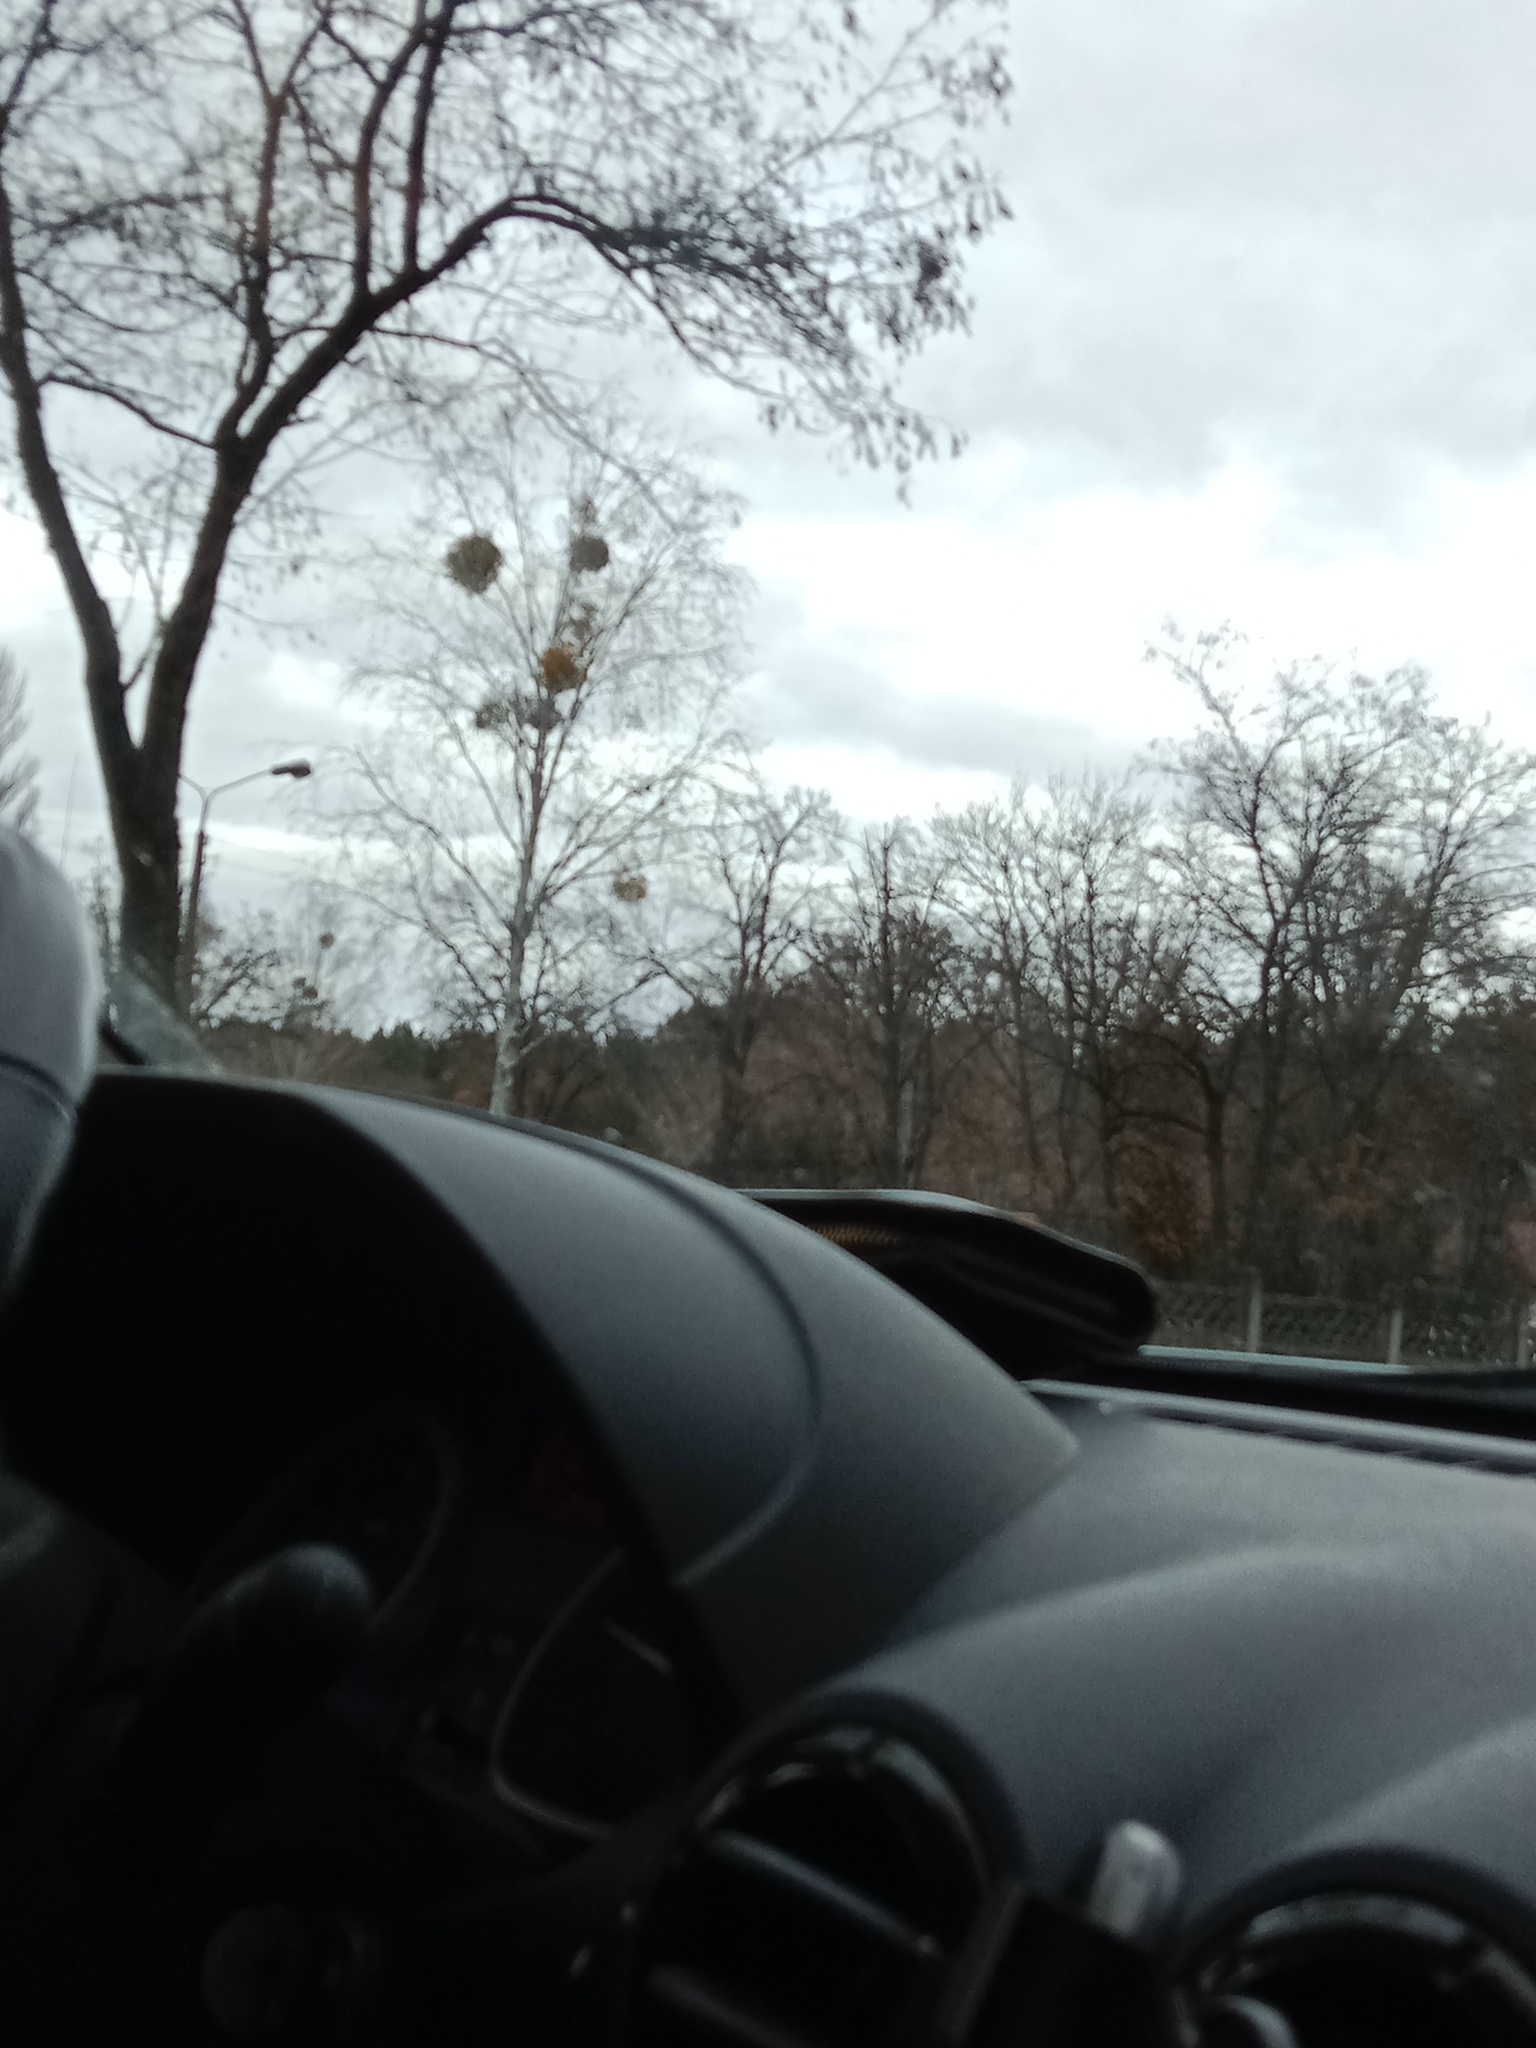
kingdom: Plantae
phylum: Tracheophyta
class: Magnoliopsida
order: Santalales
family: Viscaceae
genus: Viscum
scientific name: Viscum album
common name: Mistletoe
